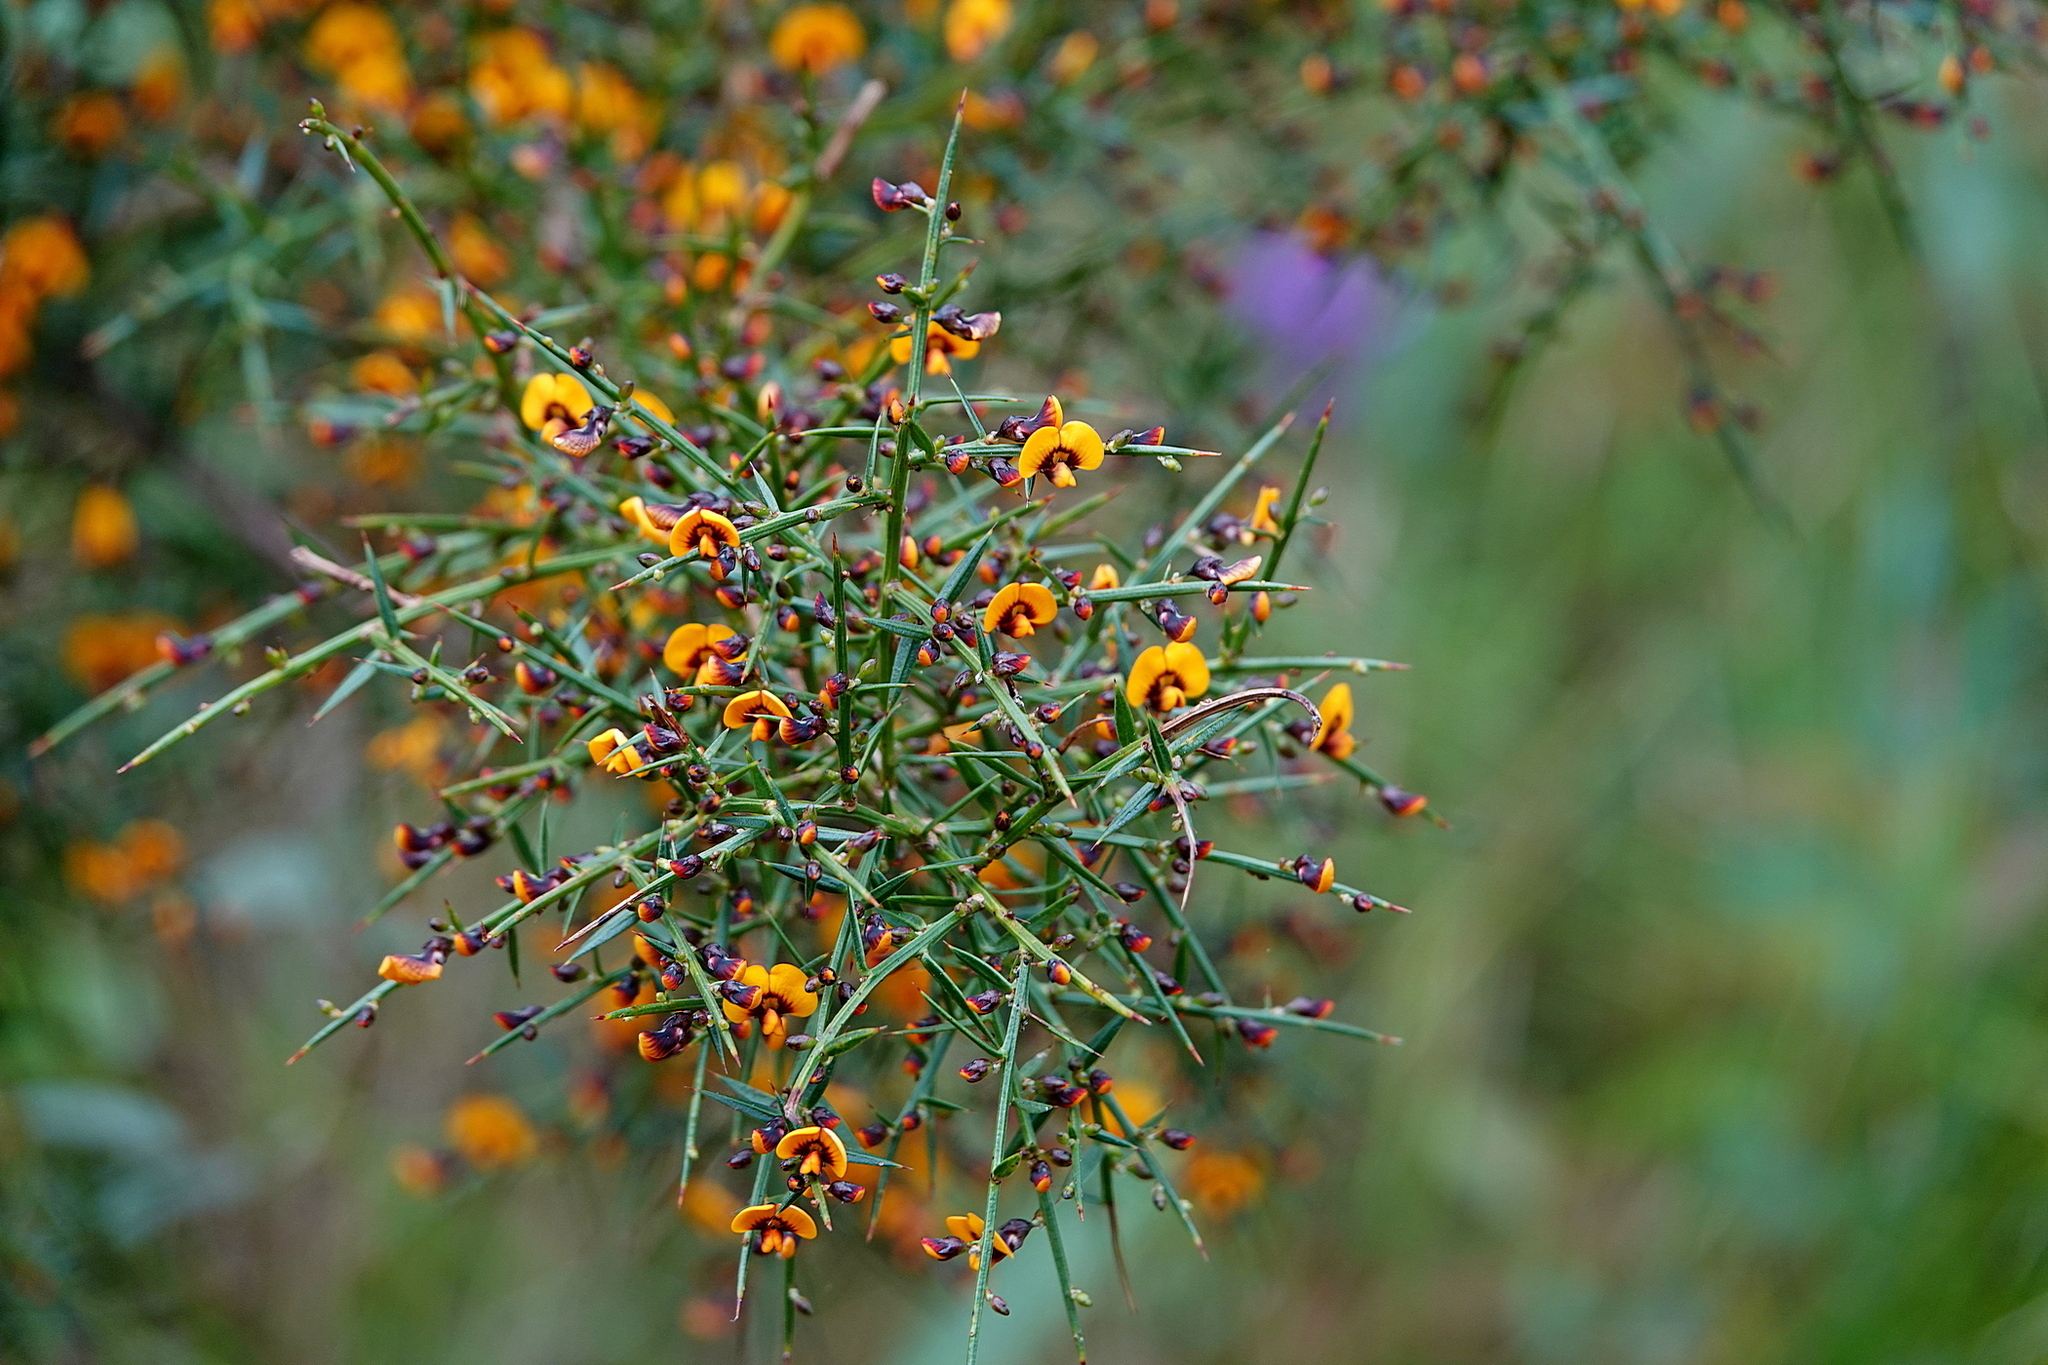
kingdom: Plantae
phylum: Tracheophyta
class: Magnoliopsida
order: Fabales
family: Fabaceae
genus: Daviesia
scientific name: Daviesia ulicifolia
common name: Gorse bitter-pea
